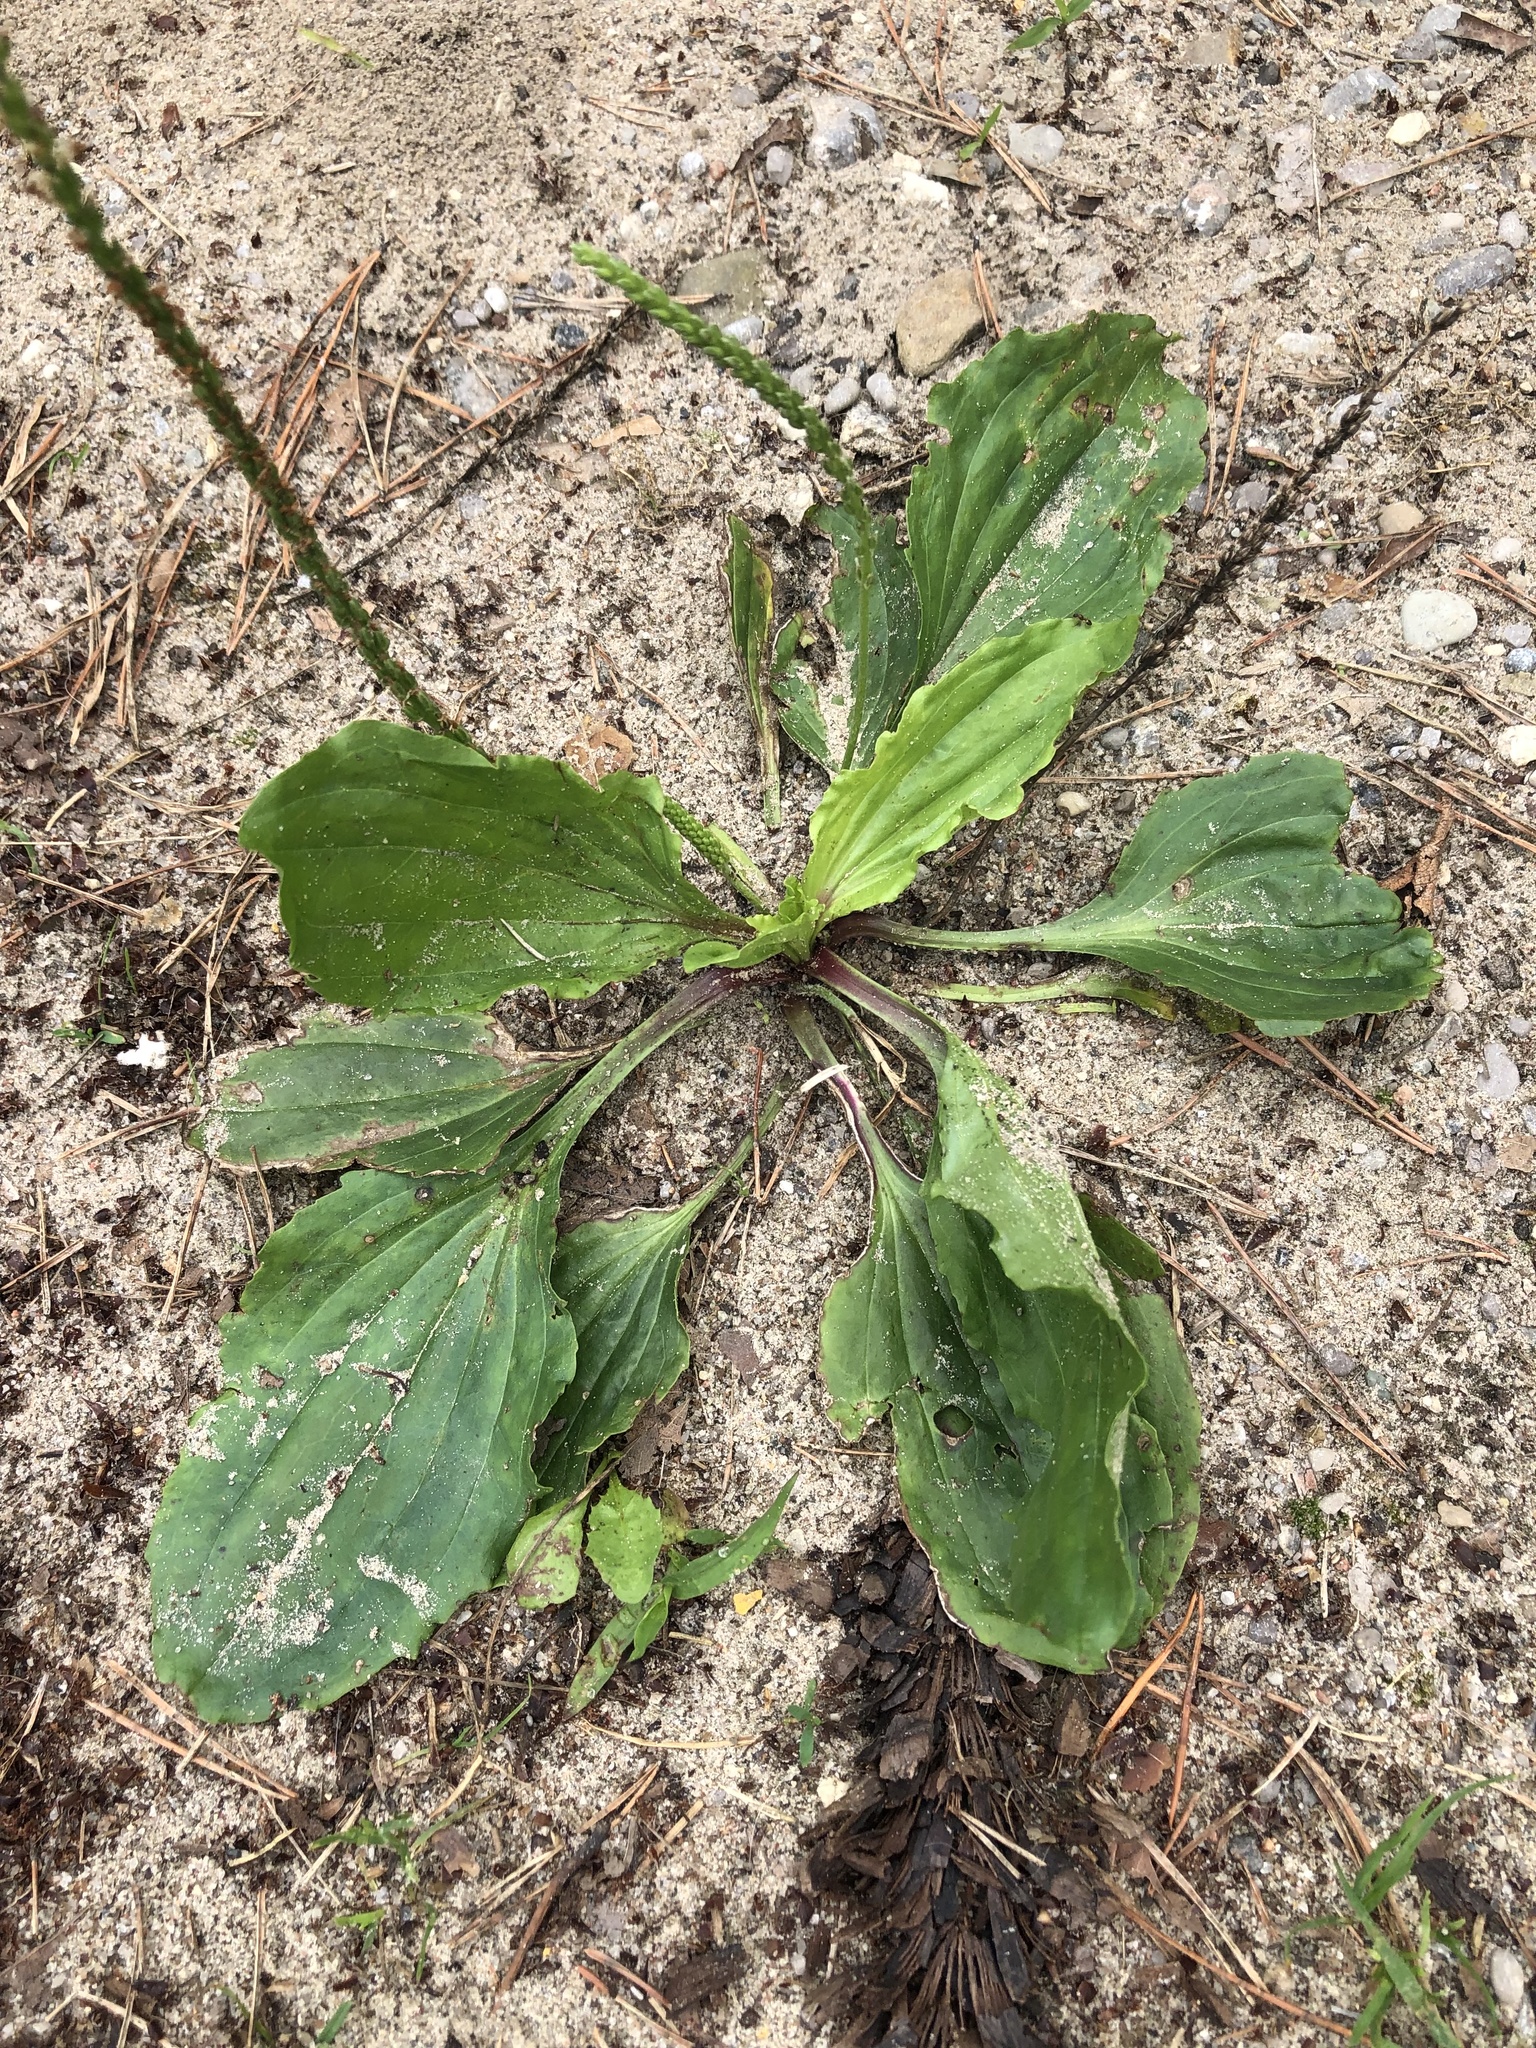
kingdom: Plantae
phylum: Tracheophyta
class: Magnoliopsida
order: Lamiales
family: Plantaginaceae
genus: Plantago
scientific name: Plantago rugelii
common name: American plantain
